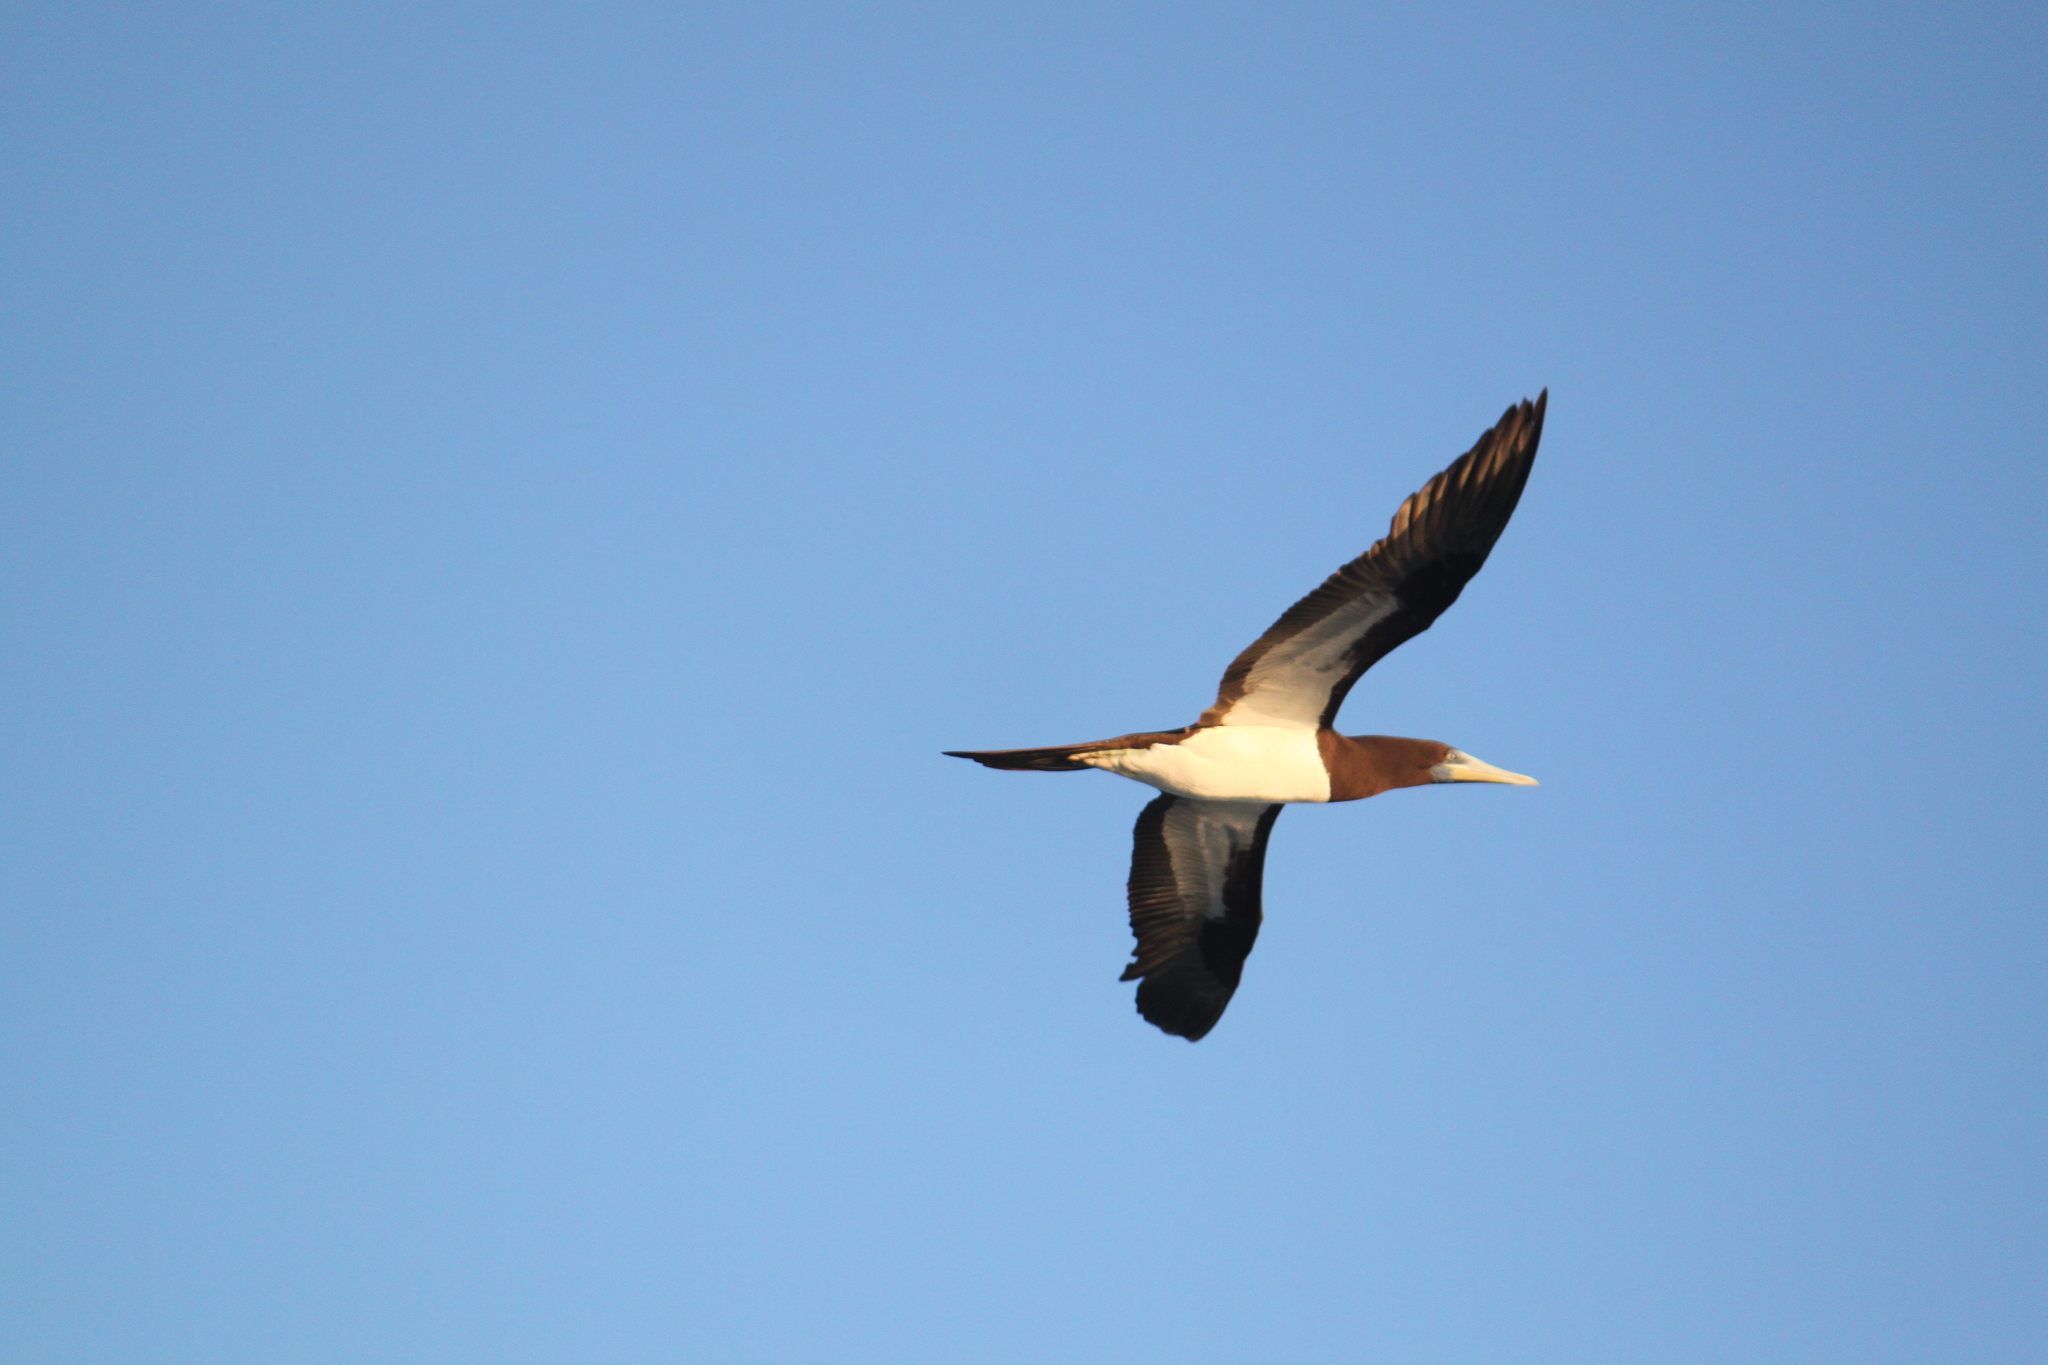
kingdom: Animalia
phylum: Chordata
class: Aves
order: Suliformes
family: Sulidae
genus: Sula
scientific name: Sula leucogaster
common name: Brown booby
